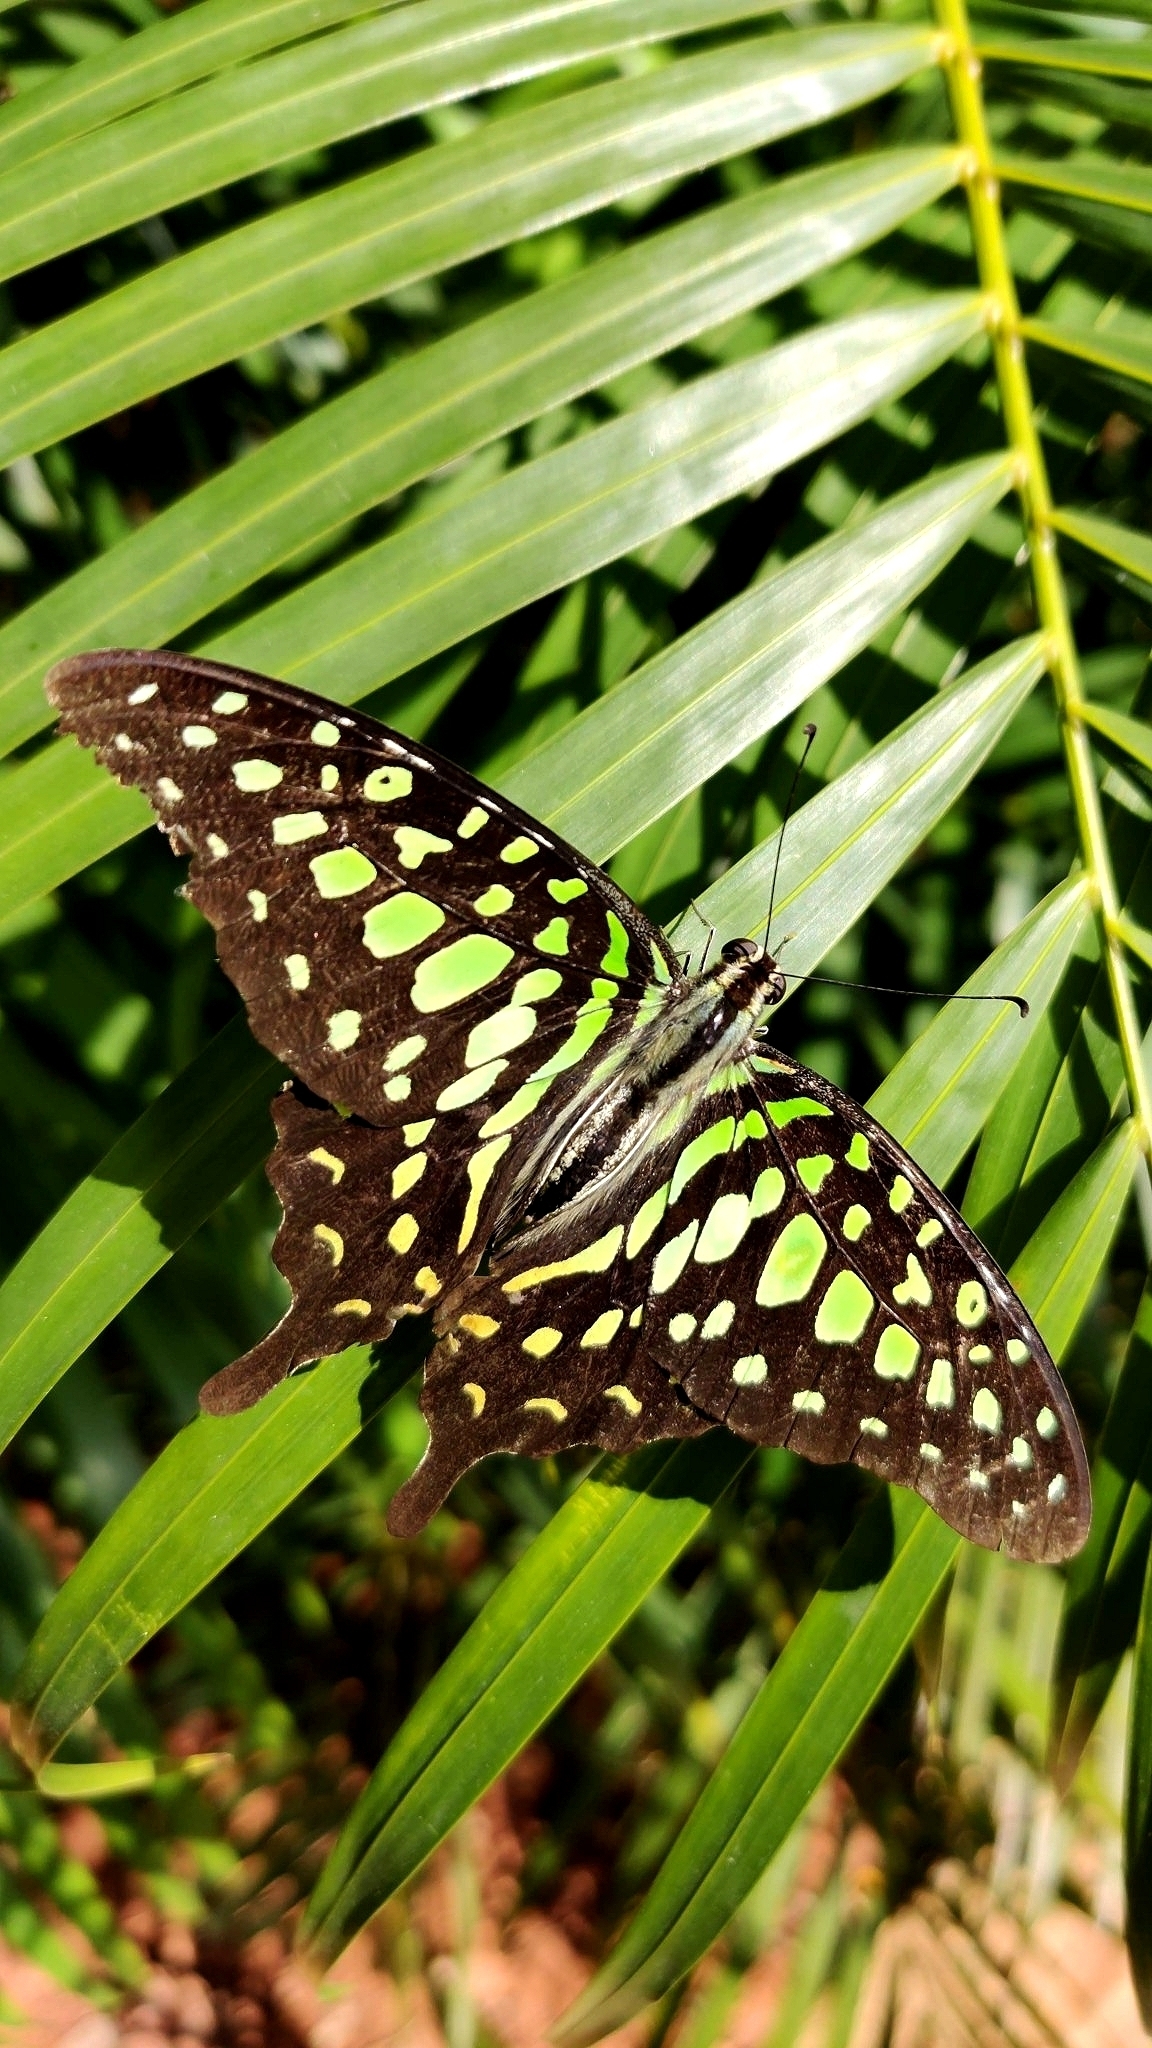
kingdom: Animalia
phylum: Arthropoda
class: Insecta
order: Lepidoptera
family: Papilionidae
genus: Graphium
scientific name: Graphium agamemnon
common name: Tailed jay
